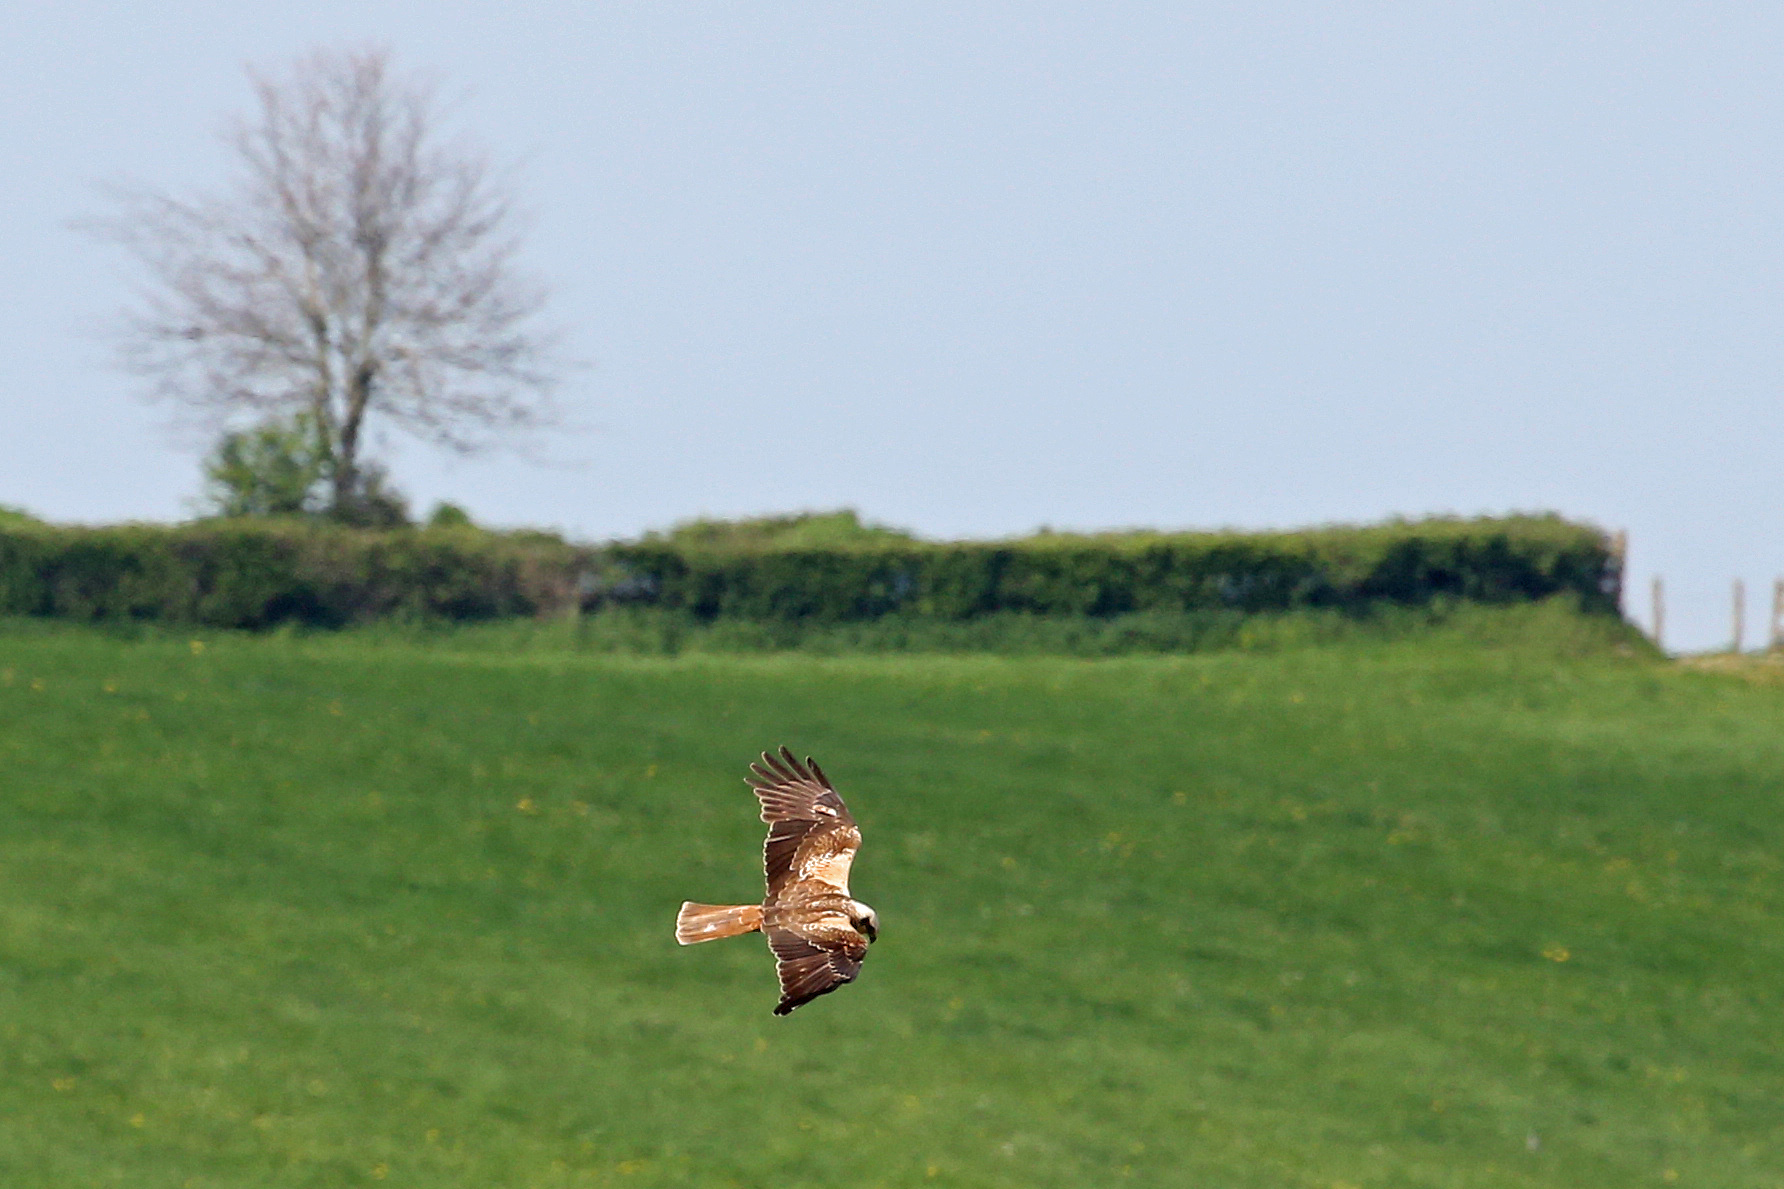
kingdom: Animalia
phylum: Chordata
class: Aves
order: Accipitriformes
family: Accipitridae
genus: Circus
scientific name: Circus aeruginosus
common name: Western marsh harrier
